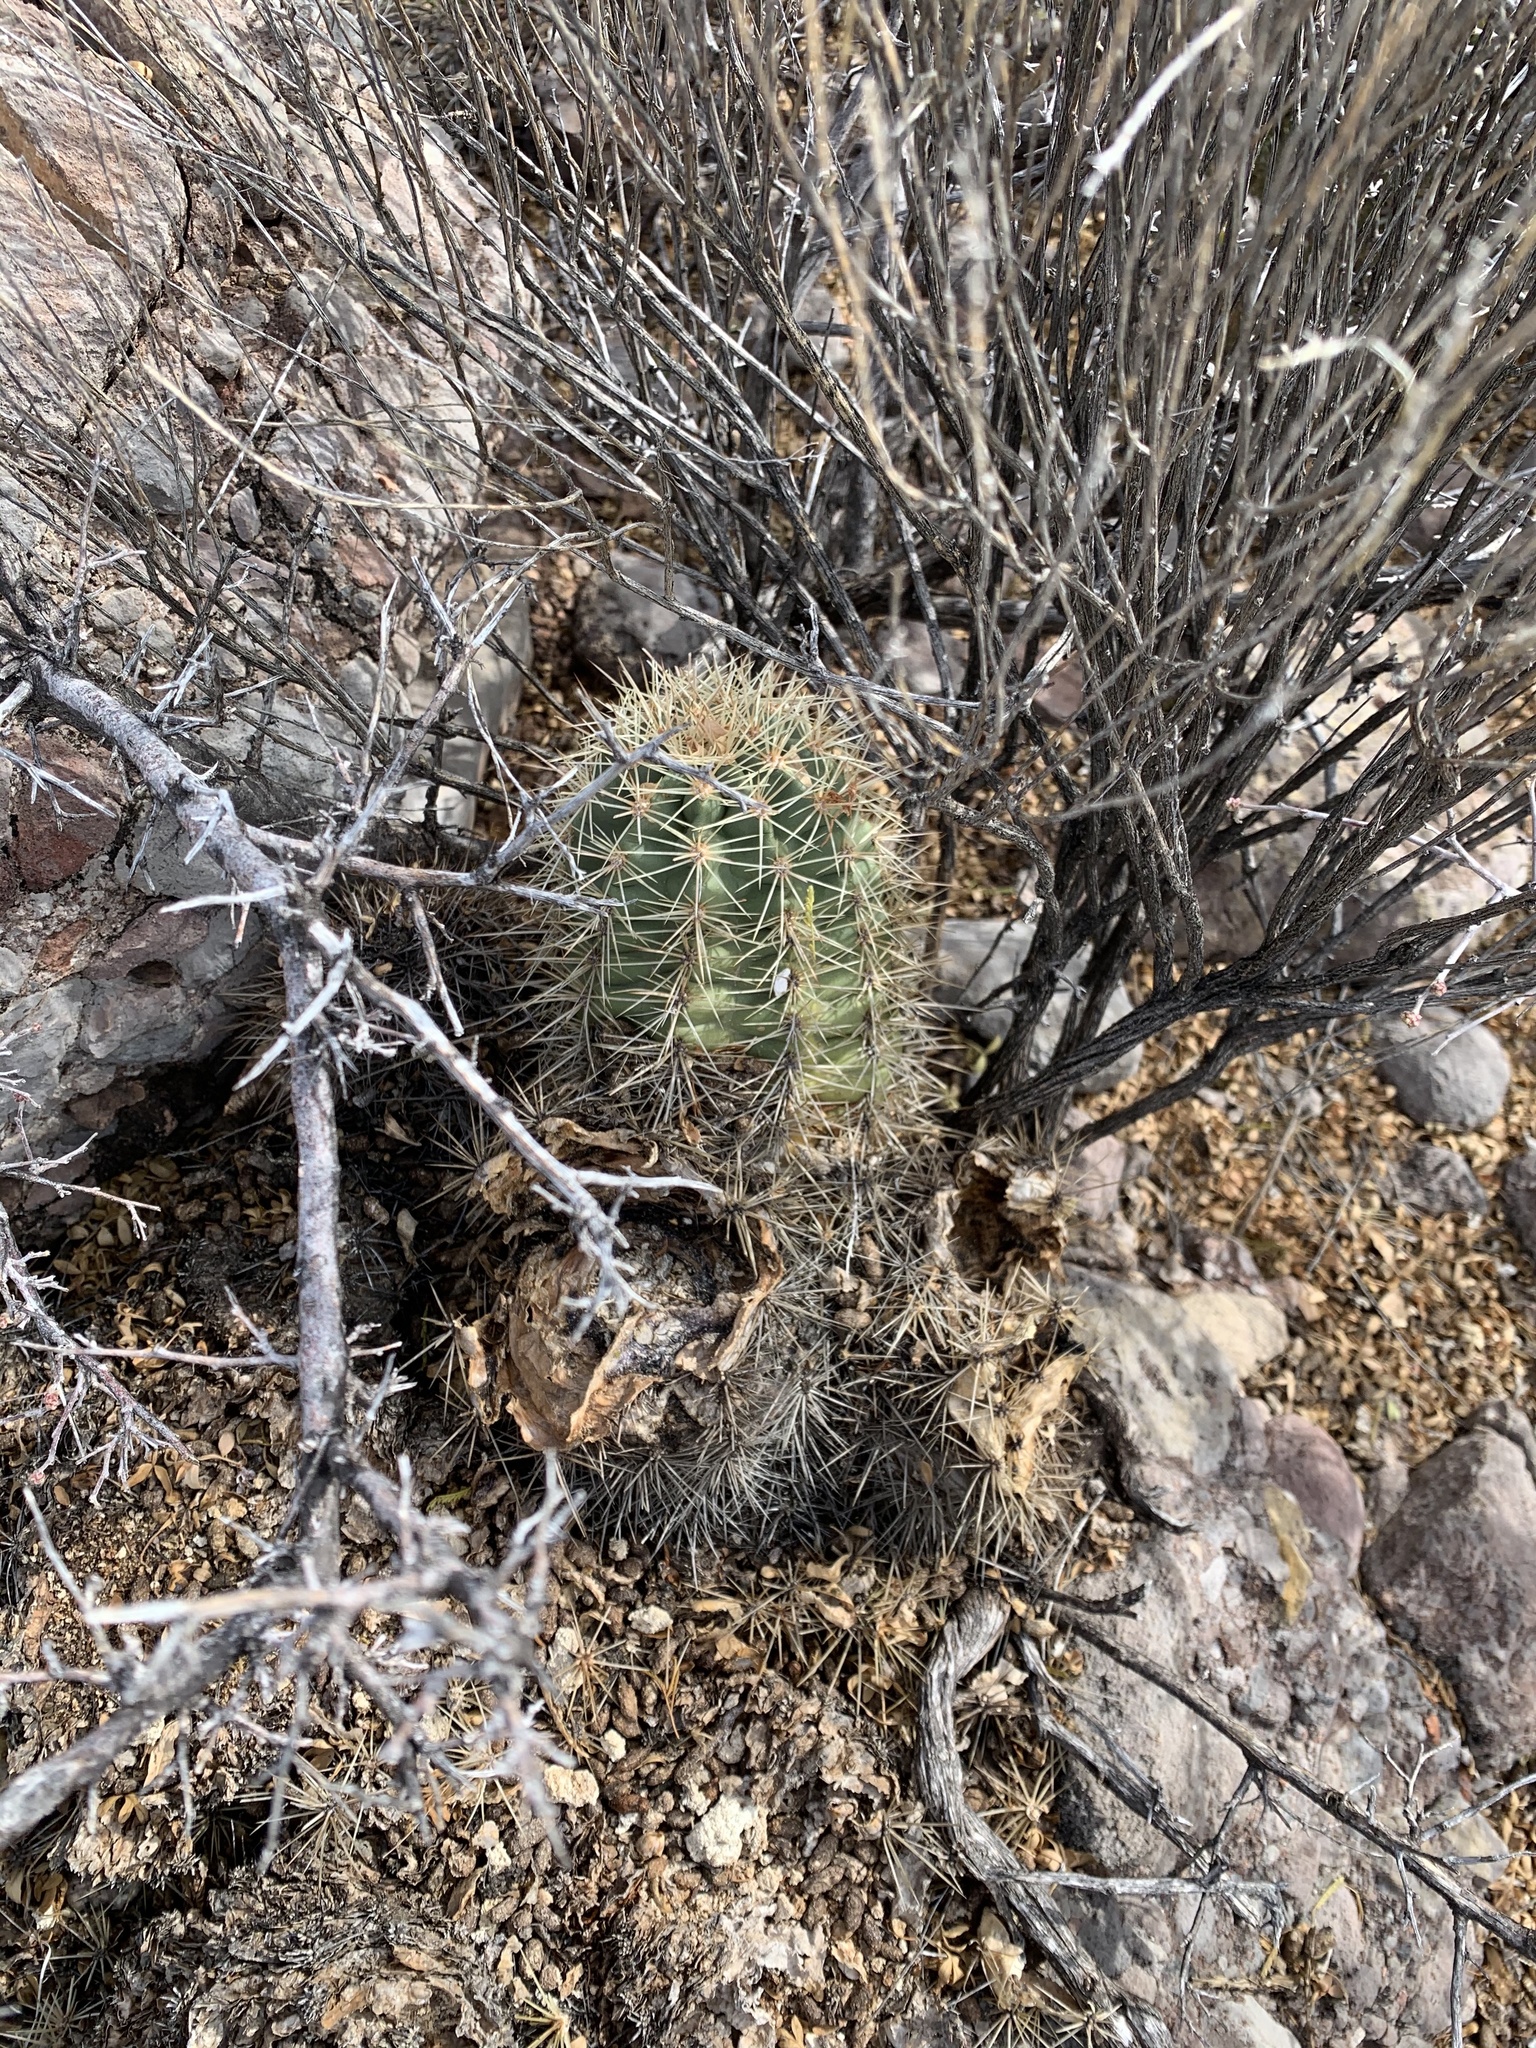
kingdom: Plantae
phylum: Tracheophyta
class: Magnoliopsida
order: Caryophyllales
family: Cactaceae
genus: Echinocereus
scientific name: Echinocereus coccineus
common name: Scarlet hedgehog cactus
